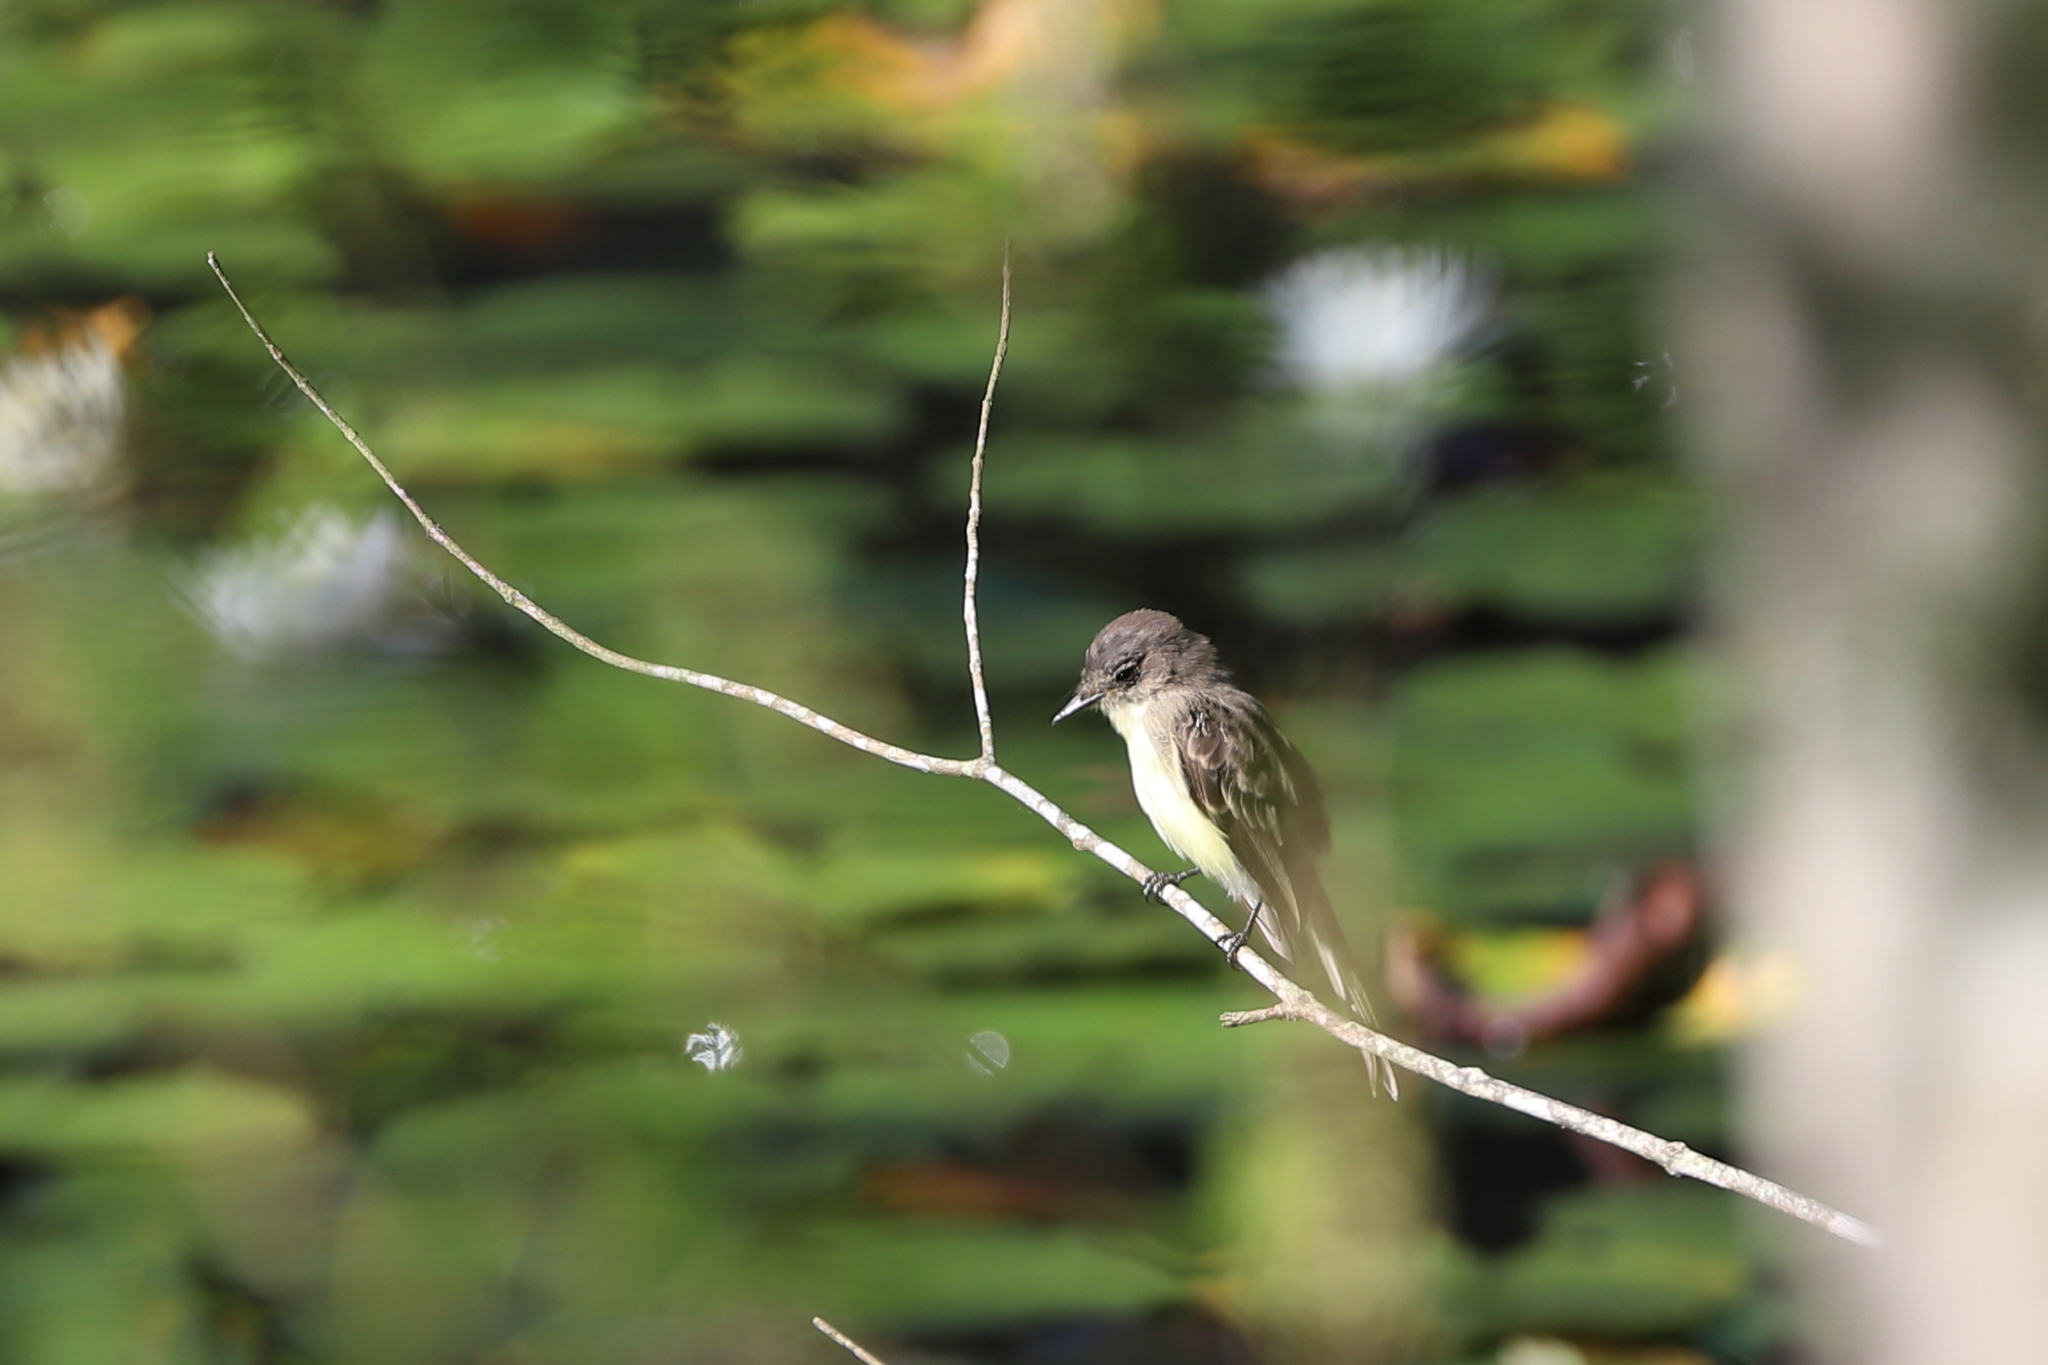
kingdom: Animalia
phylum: Chordata
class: Aves
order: Passeriformes
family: Tyrannidae
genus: Sayornis
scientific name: Sayornis phoebe
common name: Eastern phoebe
